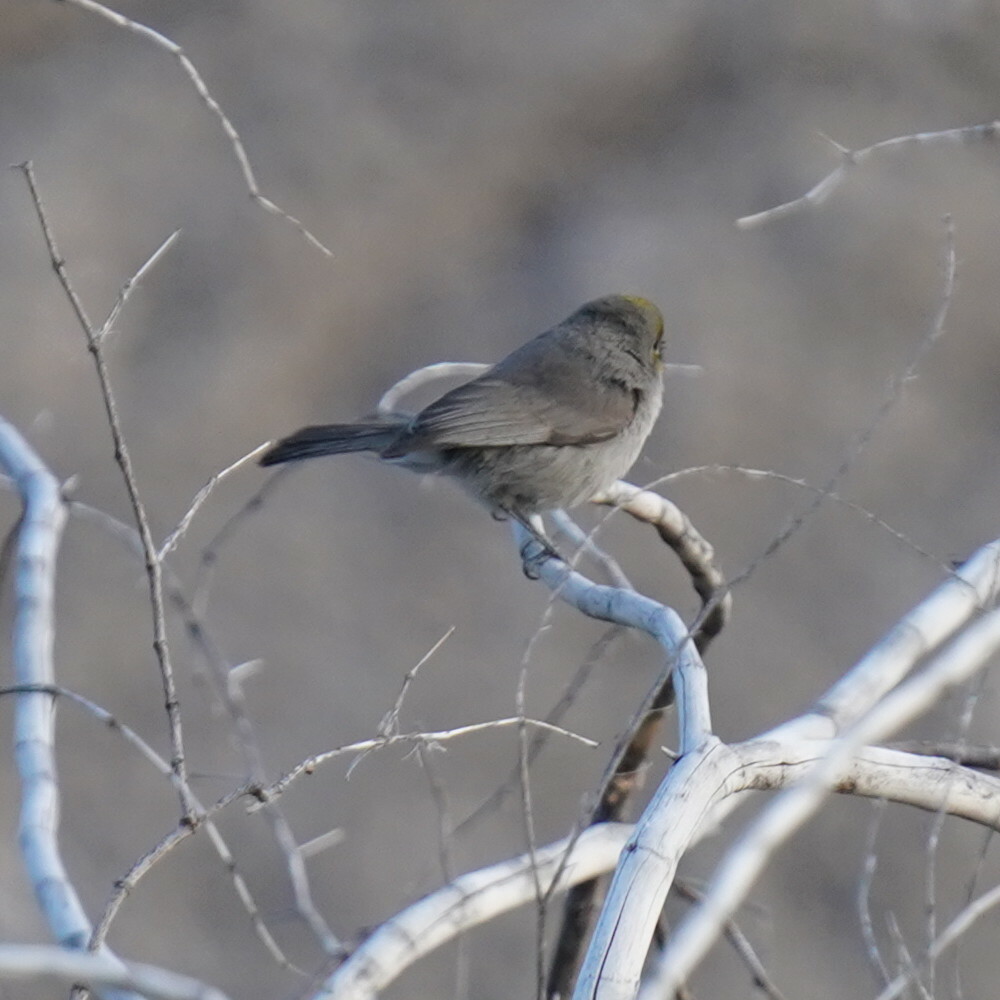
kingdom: Animalia
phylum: Chordata
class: Aves
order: Passeriformes
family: Remizidae
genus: Auriparus
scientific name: Auriparus flaviceps
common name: Verdin
